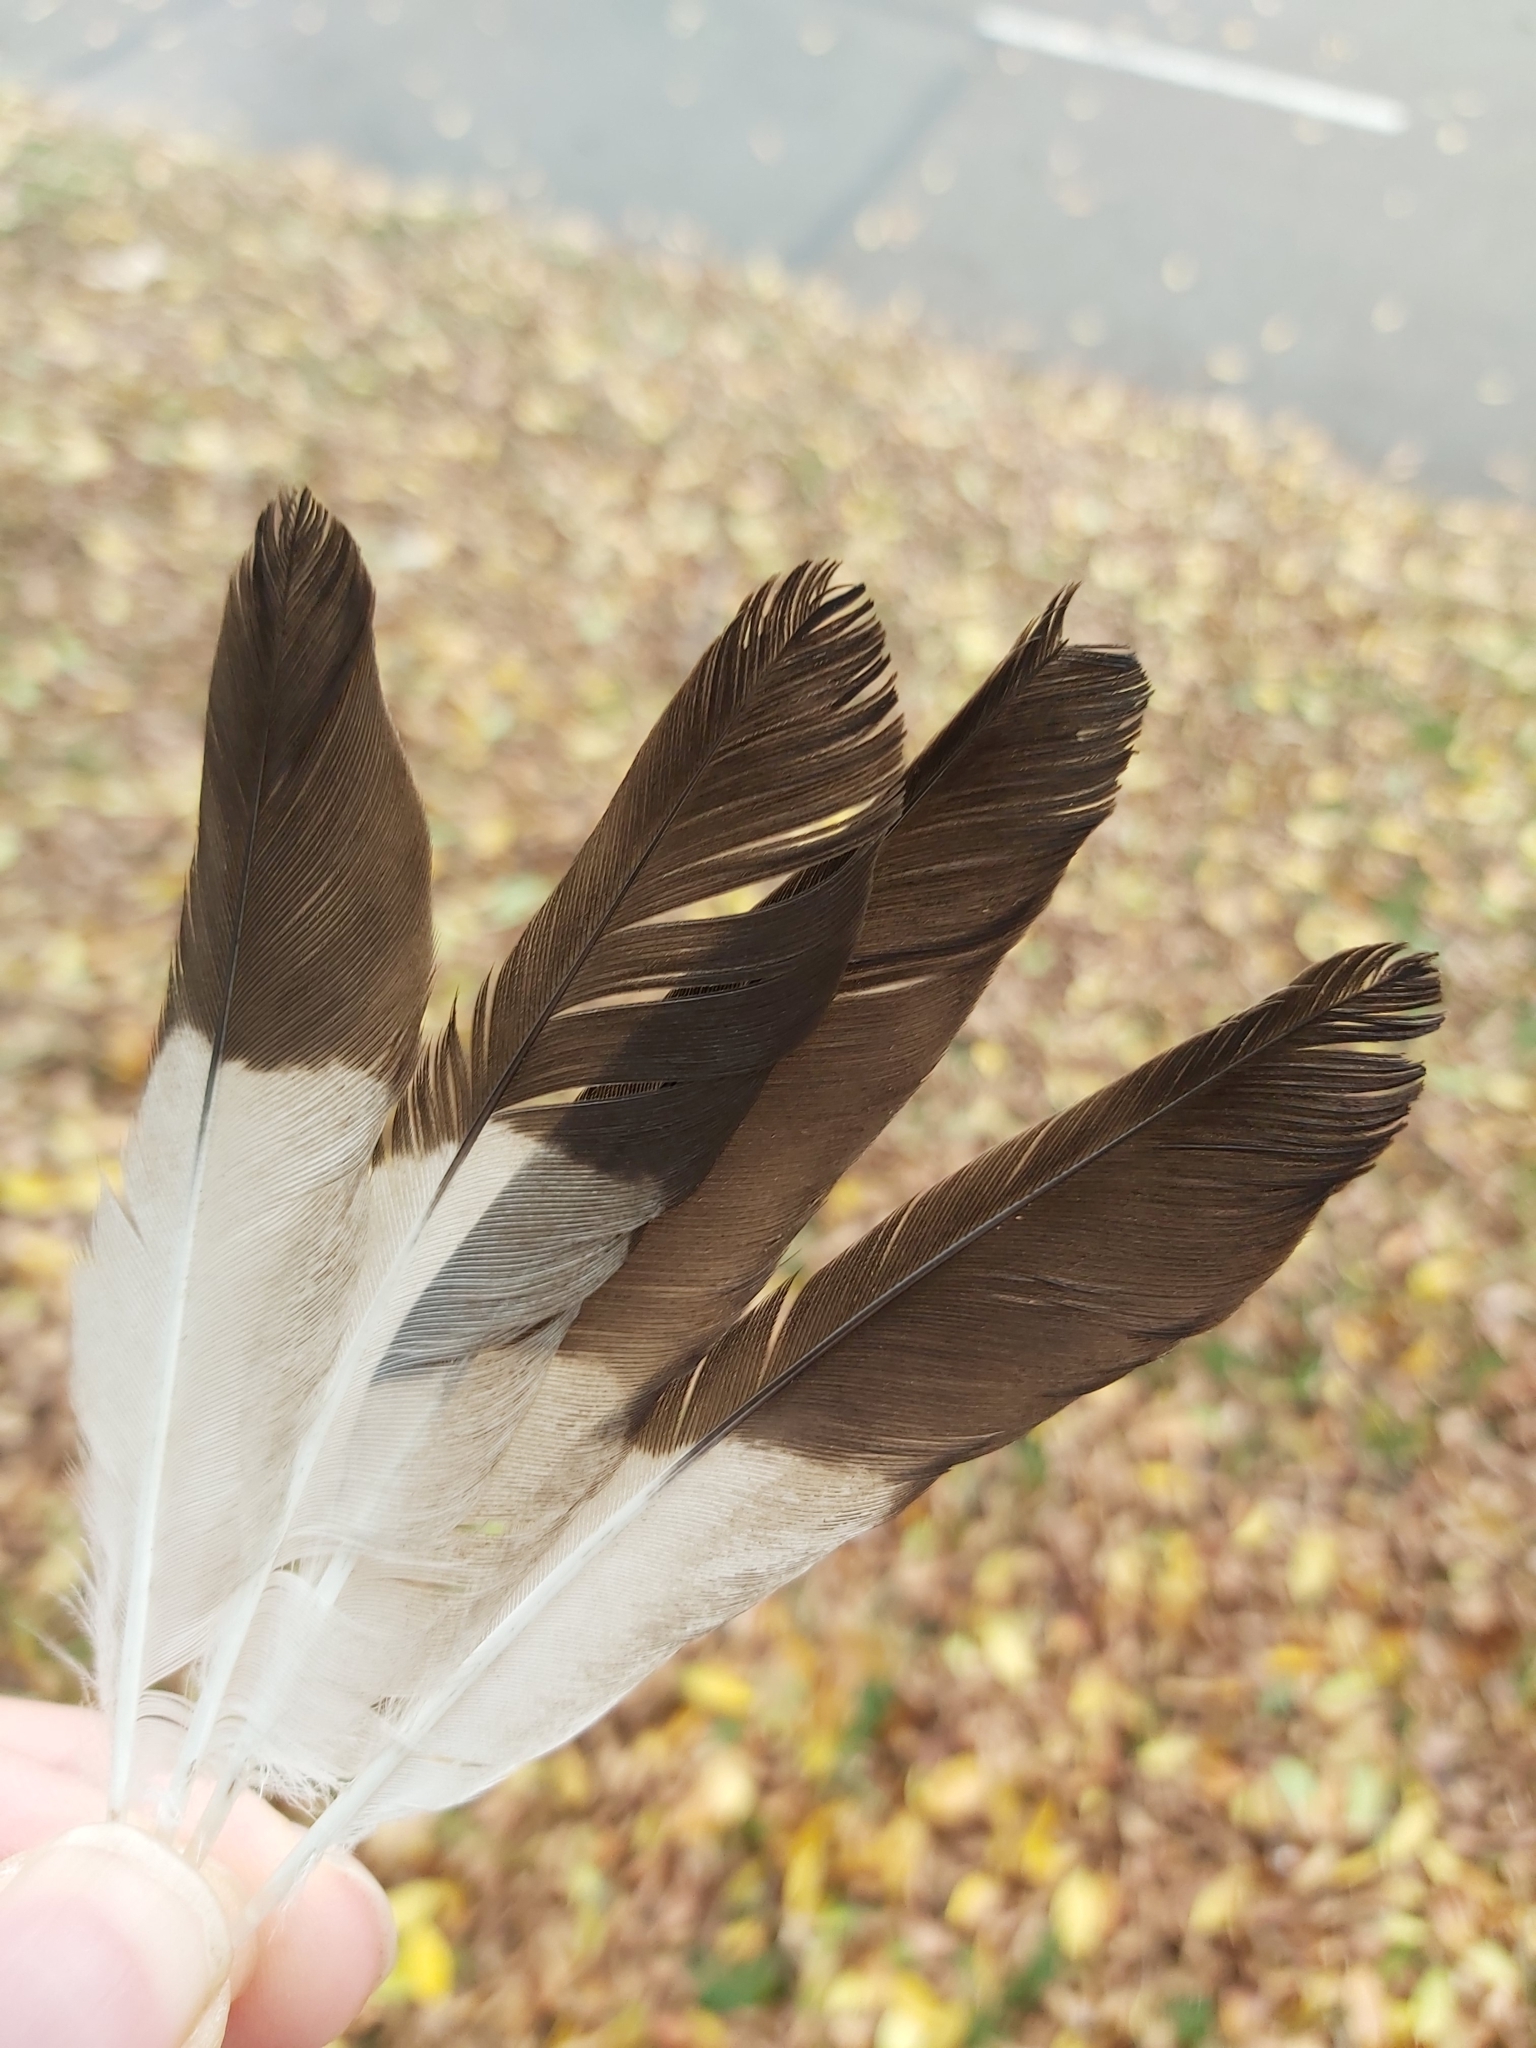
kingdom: Animalia
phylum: Chordata
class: Aves
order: Passeriformes
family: Sturnidae
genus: Acridotheres
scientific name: Acridotheres tristis
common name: Common myna
